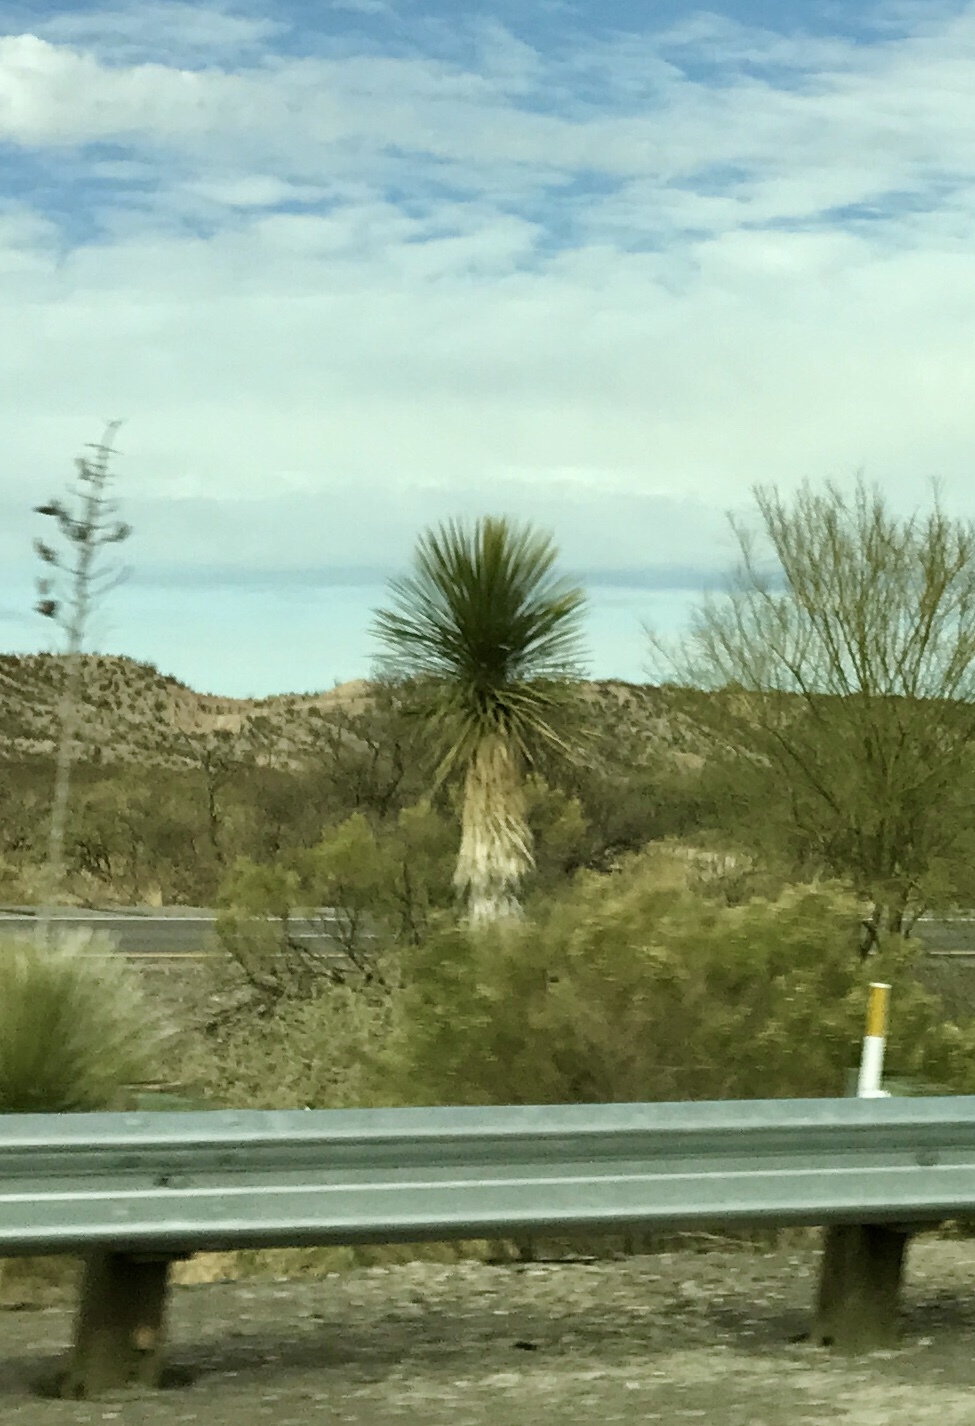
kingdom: Plantae
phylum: Tracheophyta
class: Liliopsida
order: Asparagales
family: Asparagaceae
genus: Yucca
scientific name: Yucca elata
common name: Palmella
